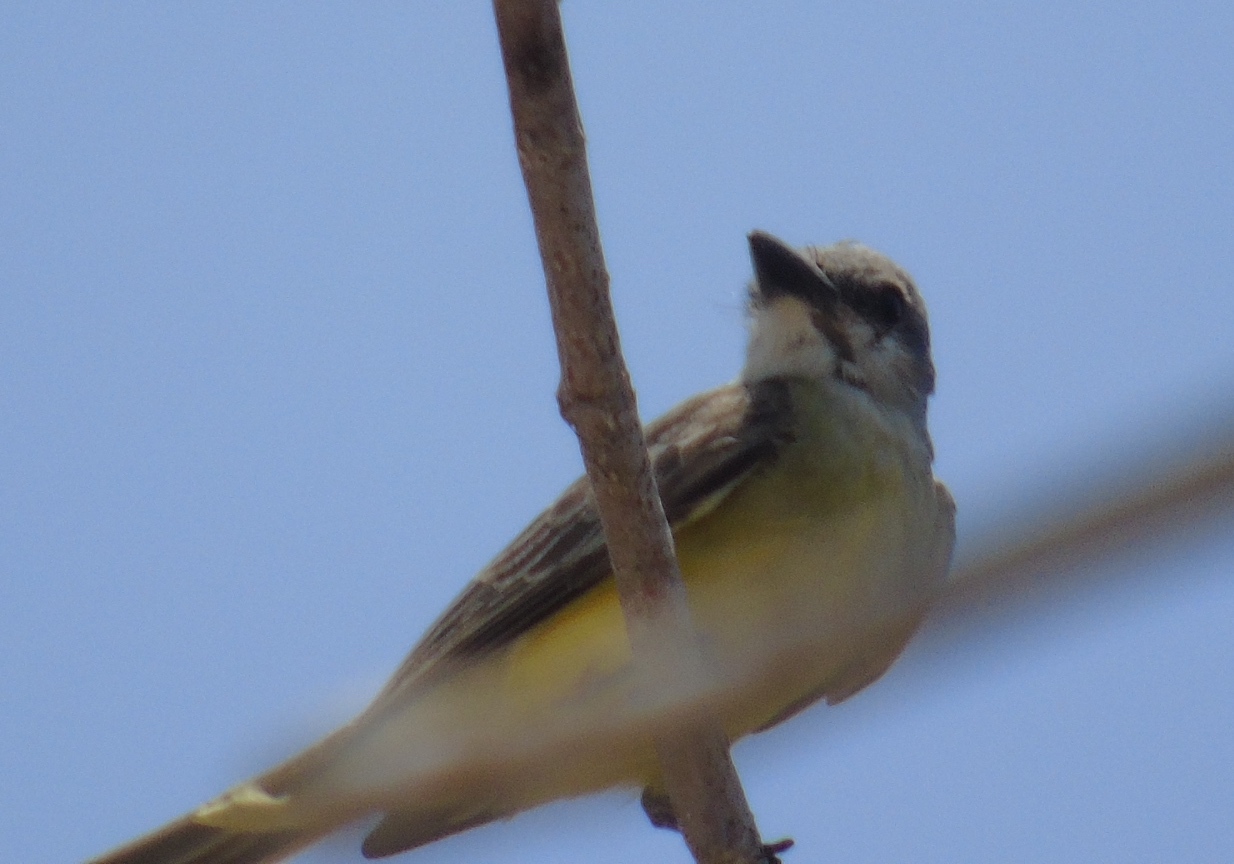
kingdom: Animalia
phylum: Chordata
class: Aves
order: Passeriformes
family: Tyrannidae
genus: Tyrannus
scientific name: Tyrannus melancholicus
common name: Tropical kingbird
